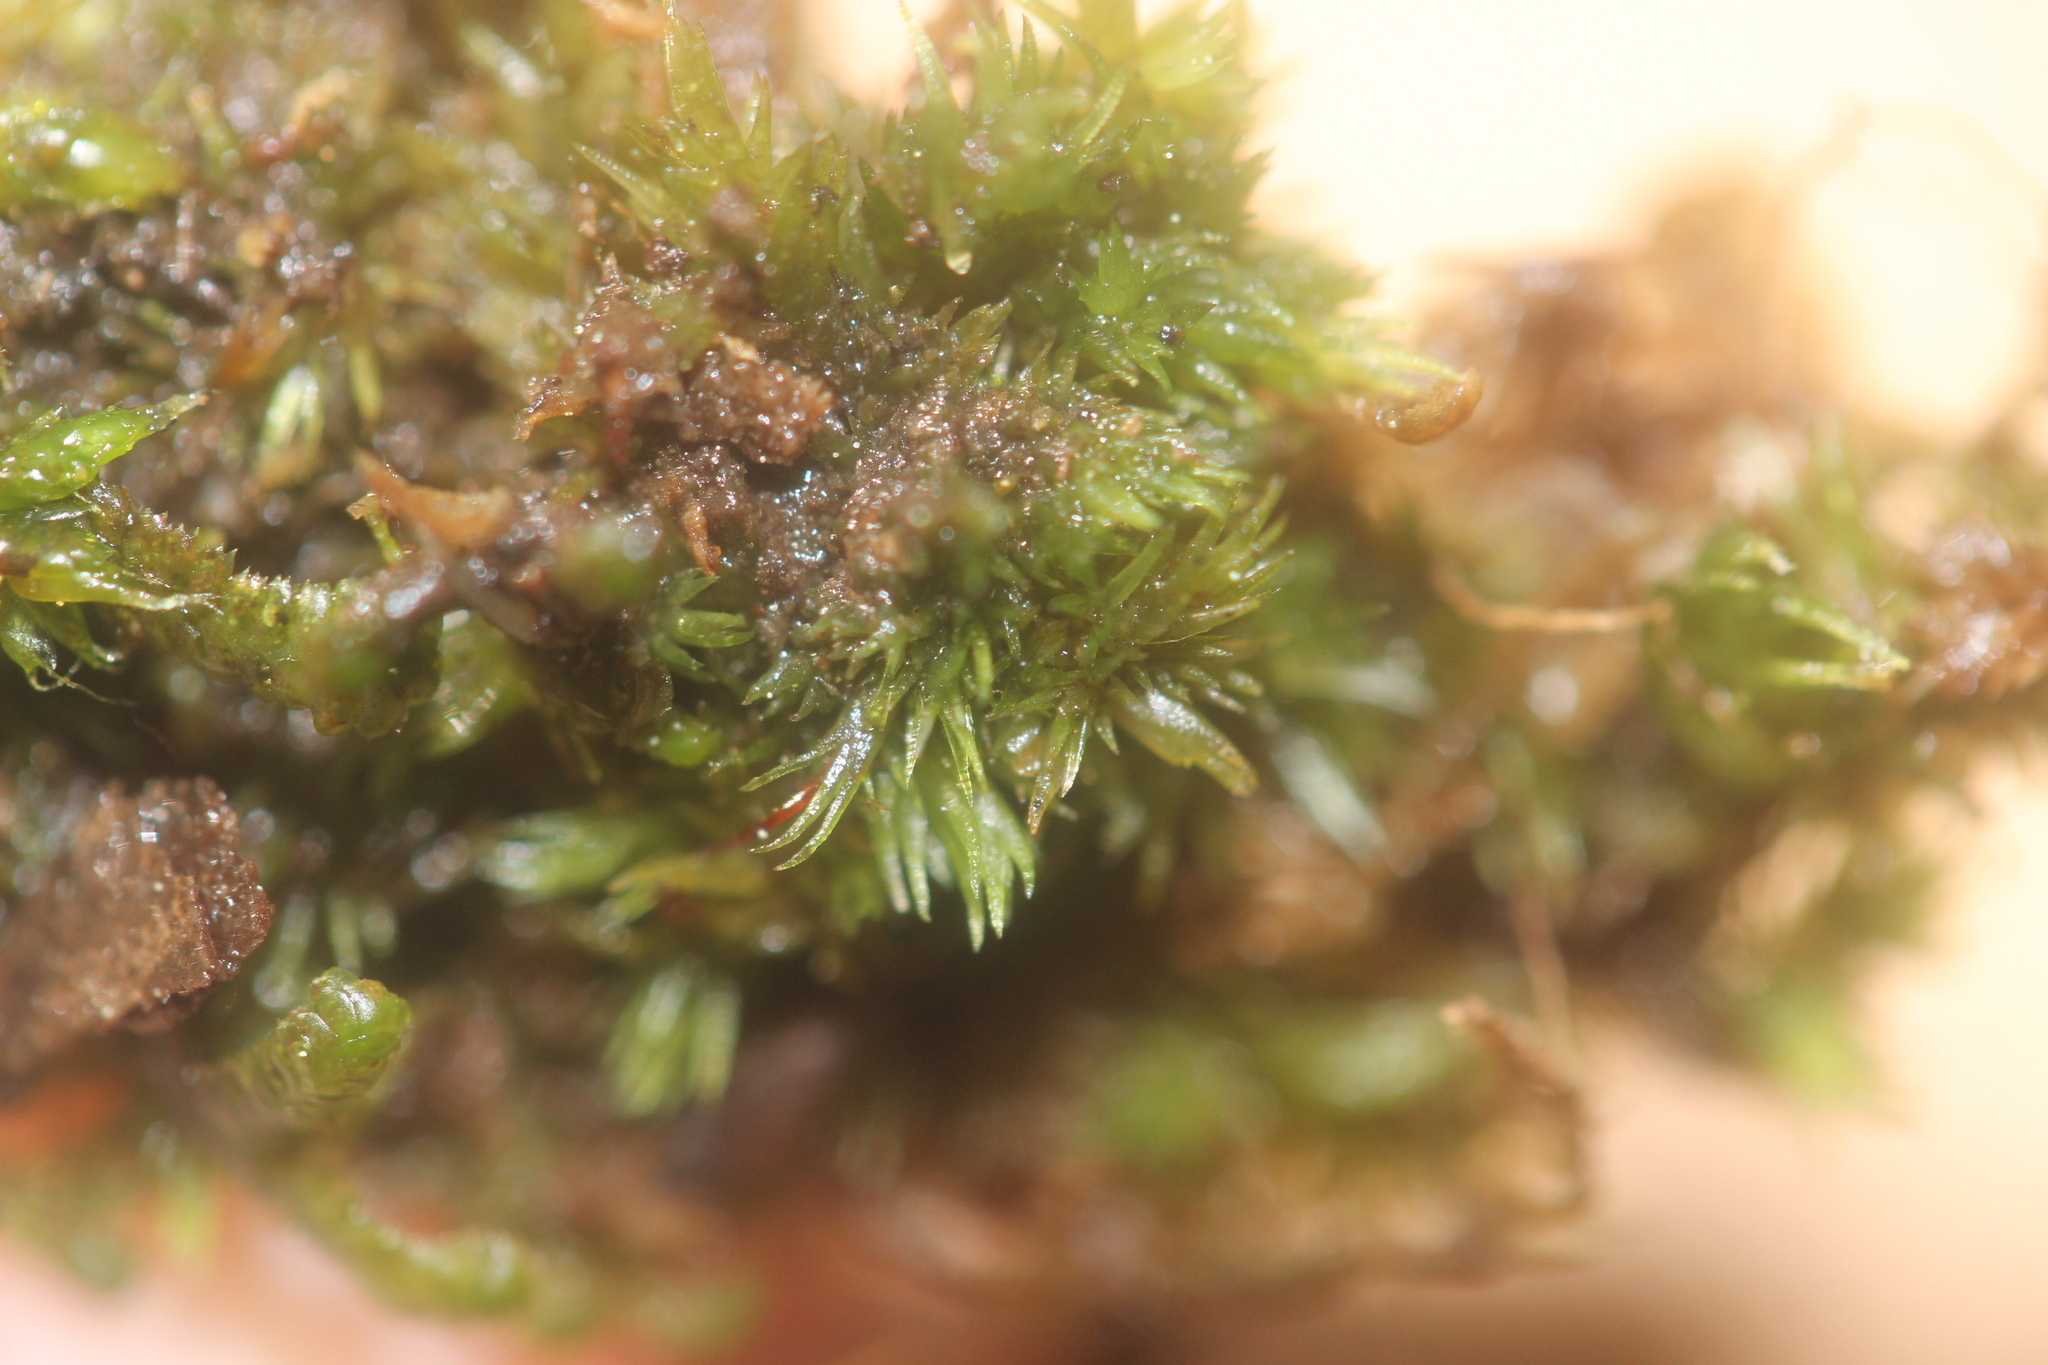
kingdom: Plantae
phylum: Bryophyta
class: Bryopsida
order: Dicranales
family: Leucobryaceae
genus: Leucobryum
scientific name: Leucobryum javense
